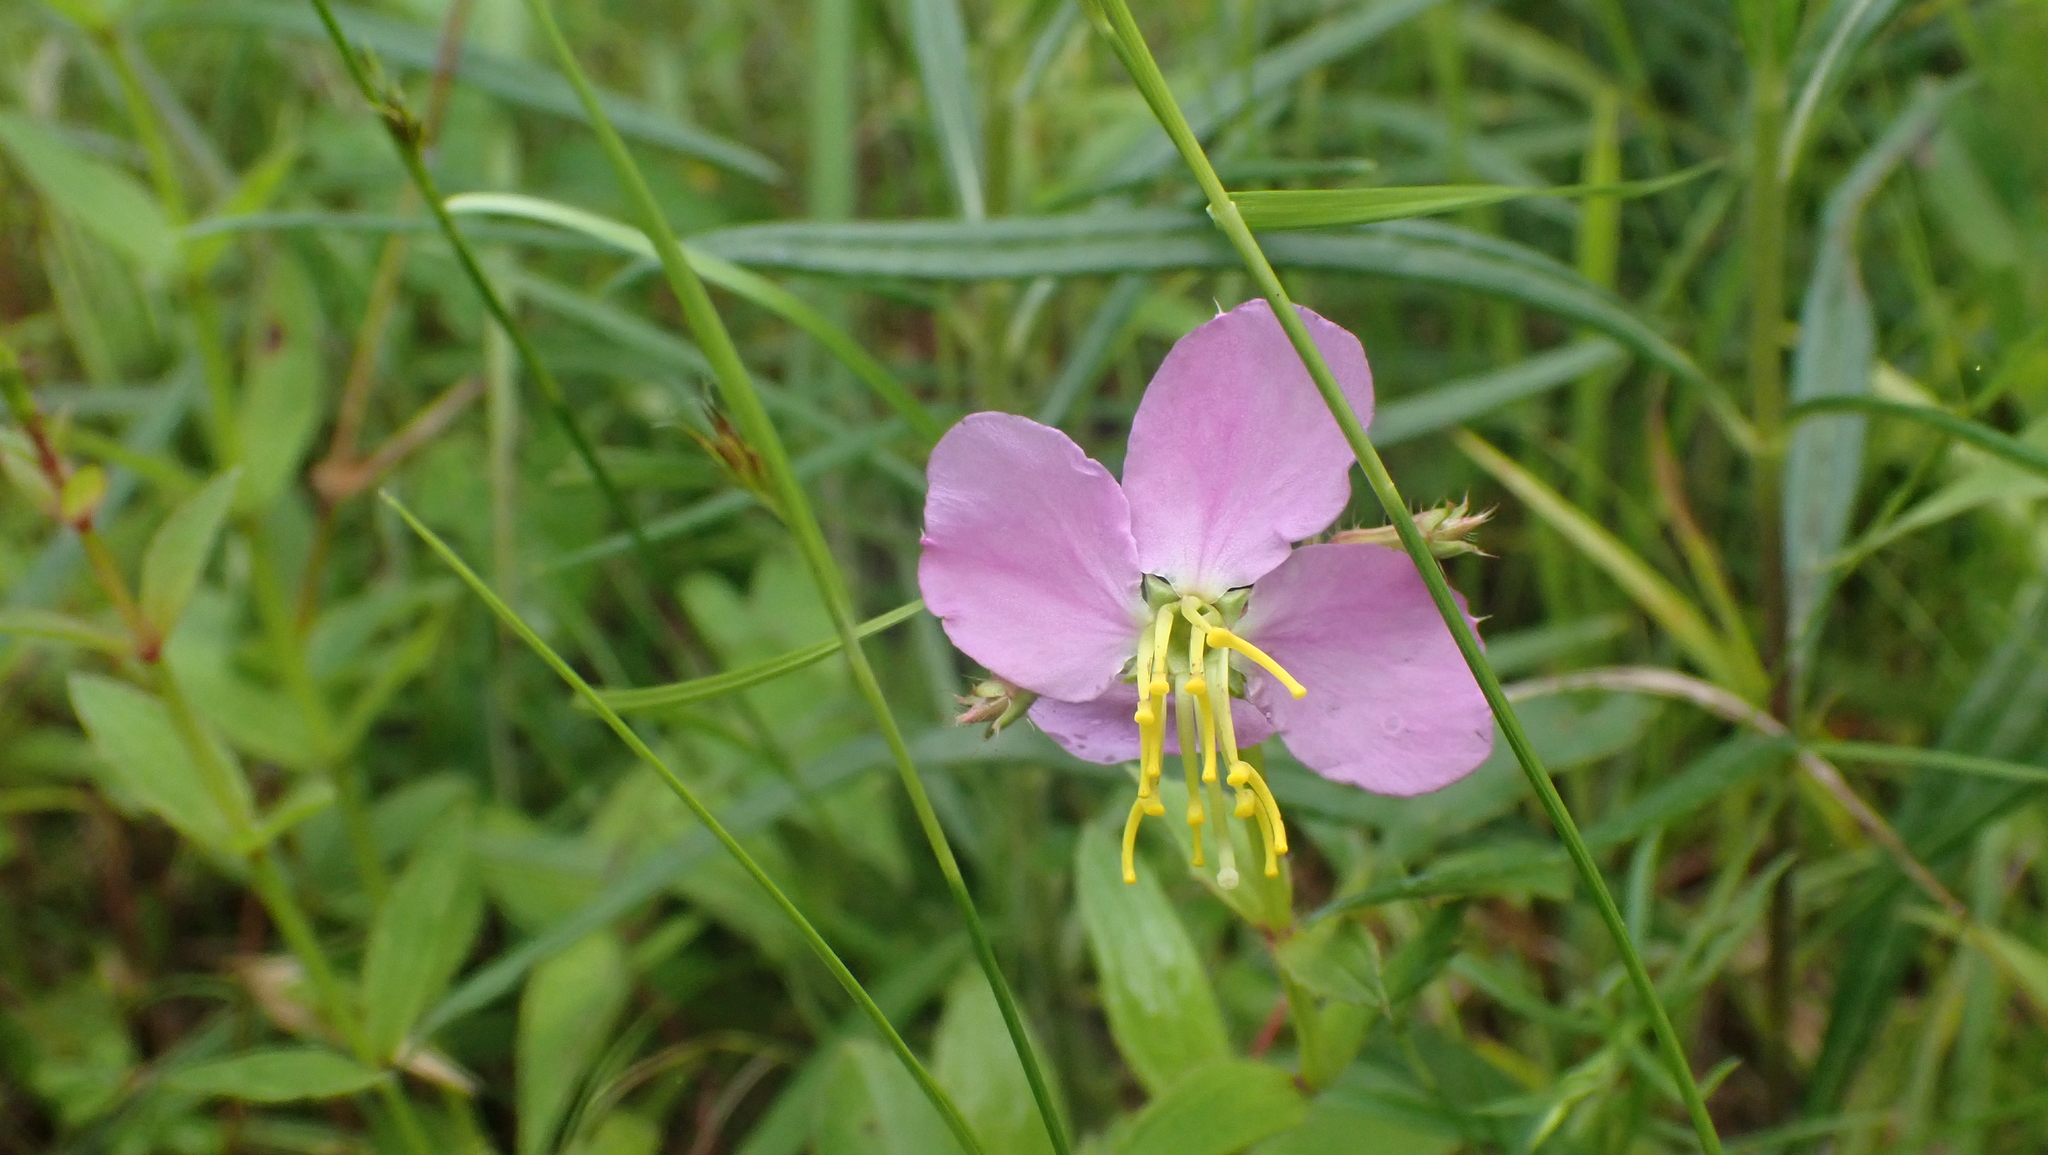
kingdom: Plantae
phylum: Tracheophyta
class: Magnoliopsida
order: Myrtales
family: Melastomataceae
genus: Rhexia
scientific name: Rhexia virginica
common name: Common meadow beauty
